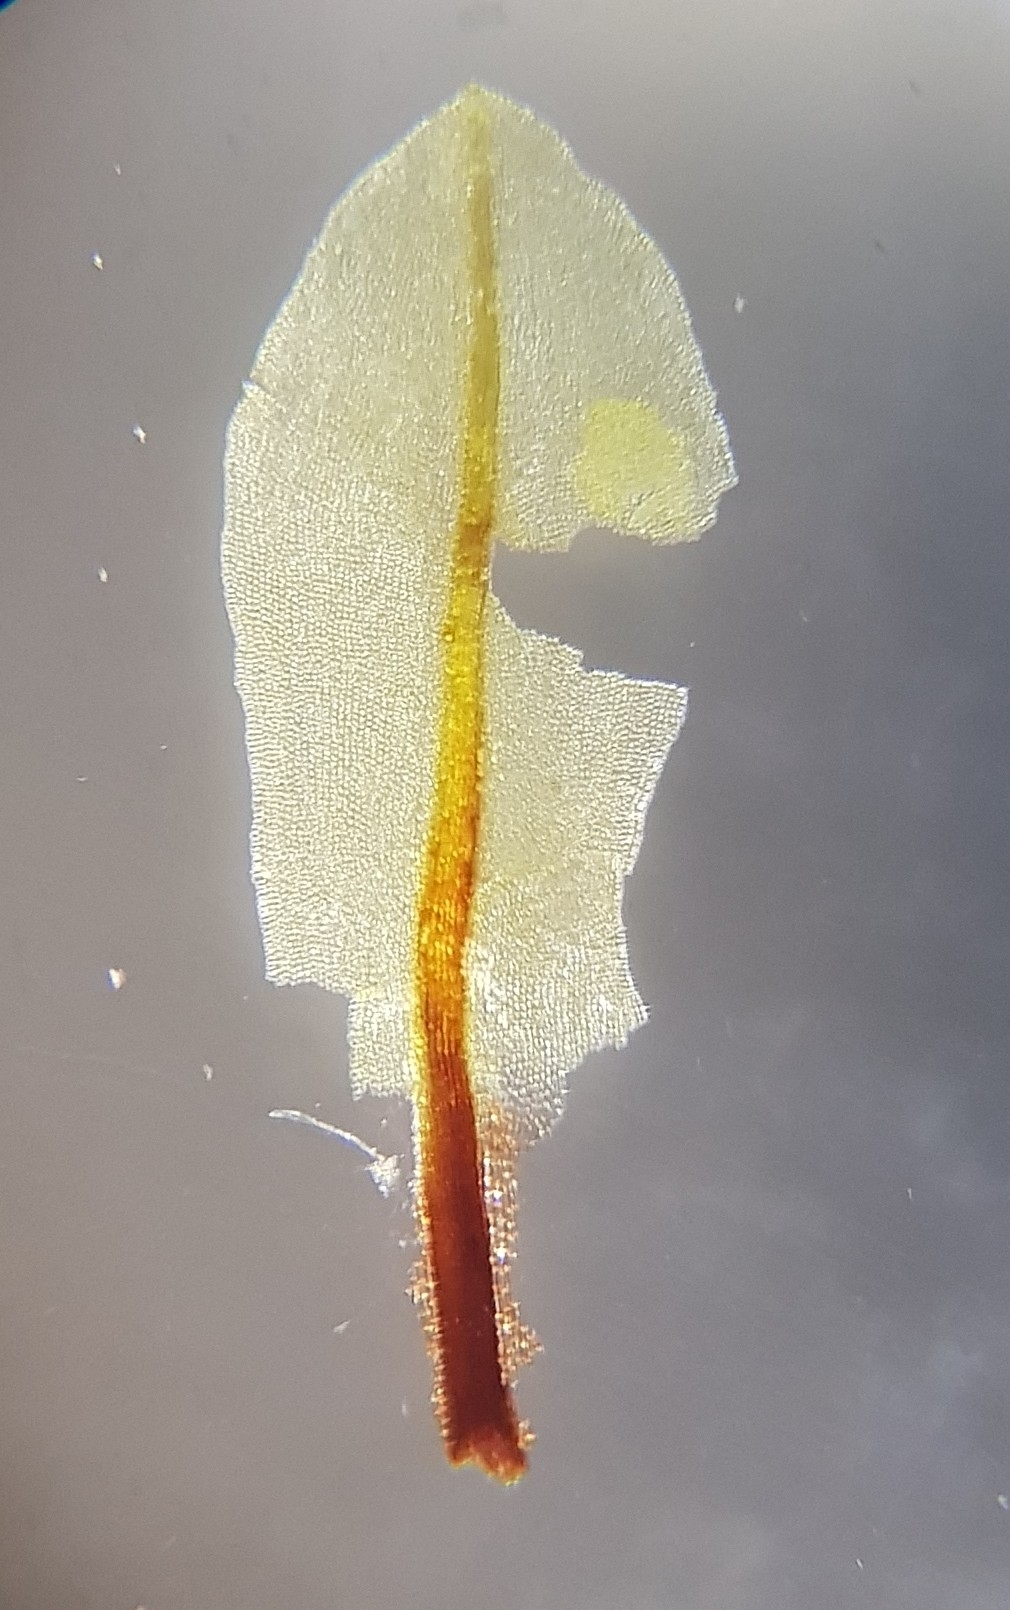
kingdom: Plantae
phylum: Bryophyta
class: Bryopsida
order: Encalyptales
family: Encalyptaceae
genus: Encalypta
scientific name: Encalypta streptocarpa
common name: Spiral extinguisher-moss
